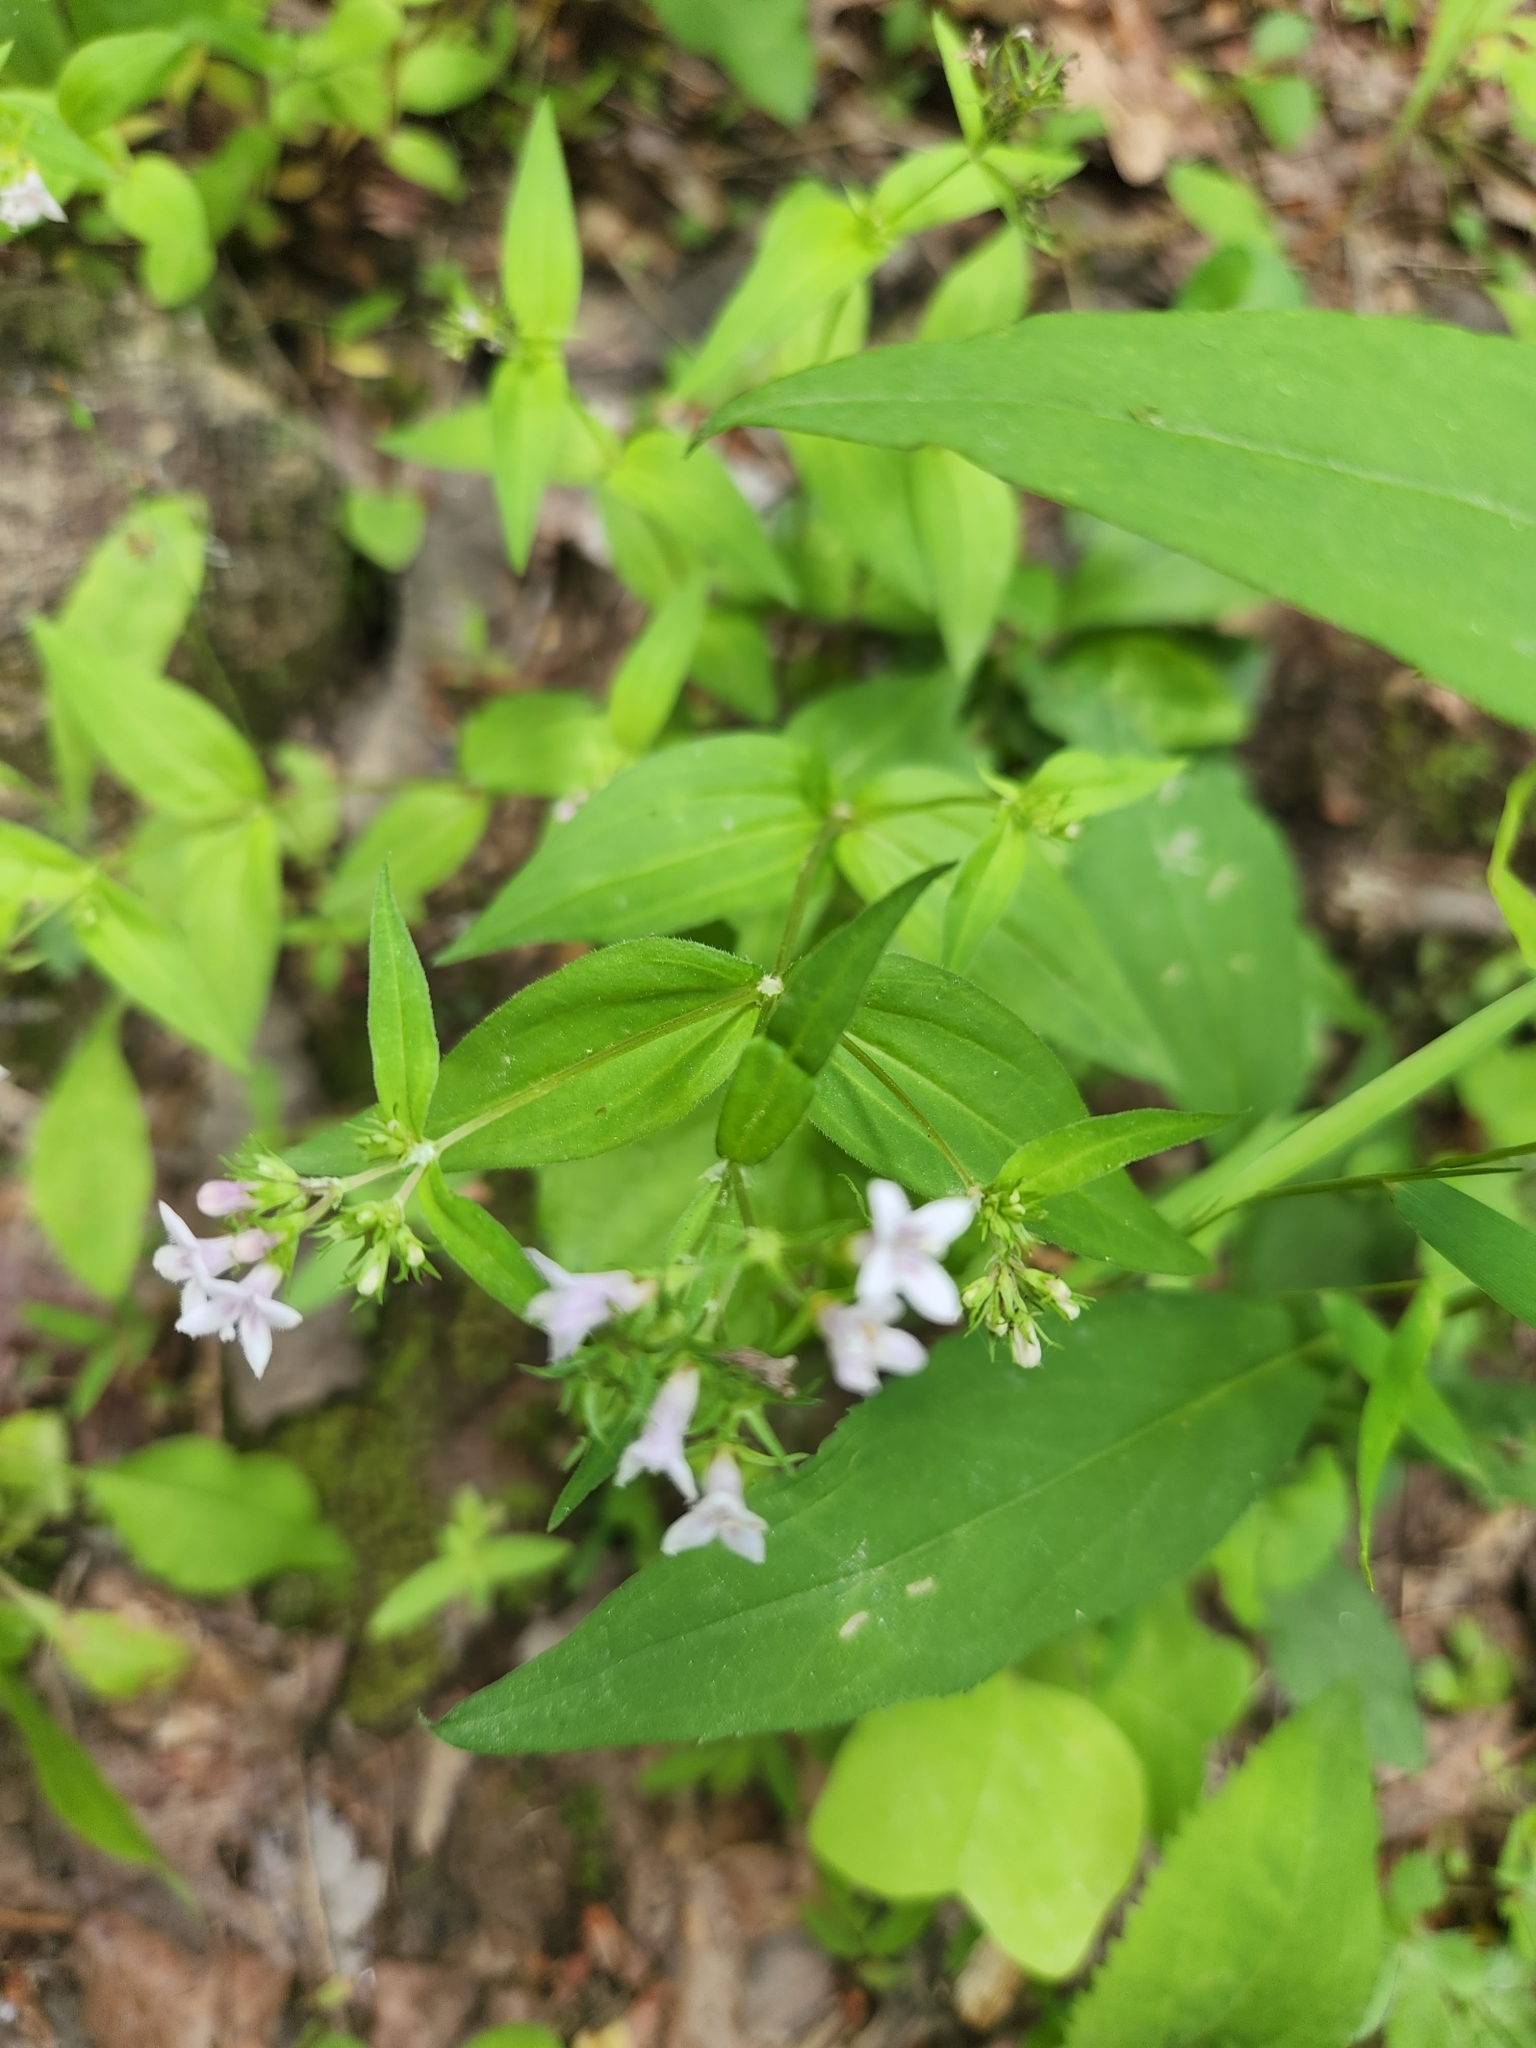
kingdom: Plantae
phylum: Tracheophyta
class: Magnoliopsida
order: Gentianales
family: Rubiaceae
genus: Houstonia
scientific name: Houstonia purpurea
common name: Summer bluet
